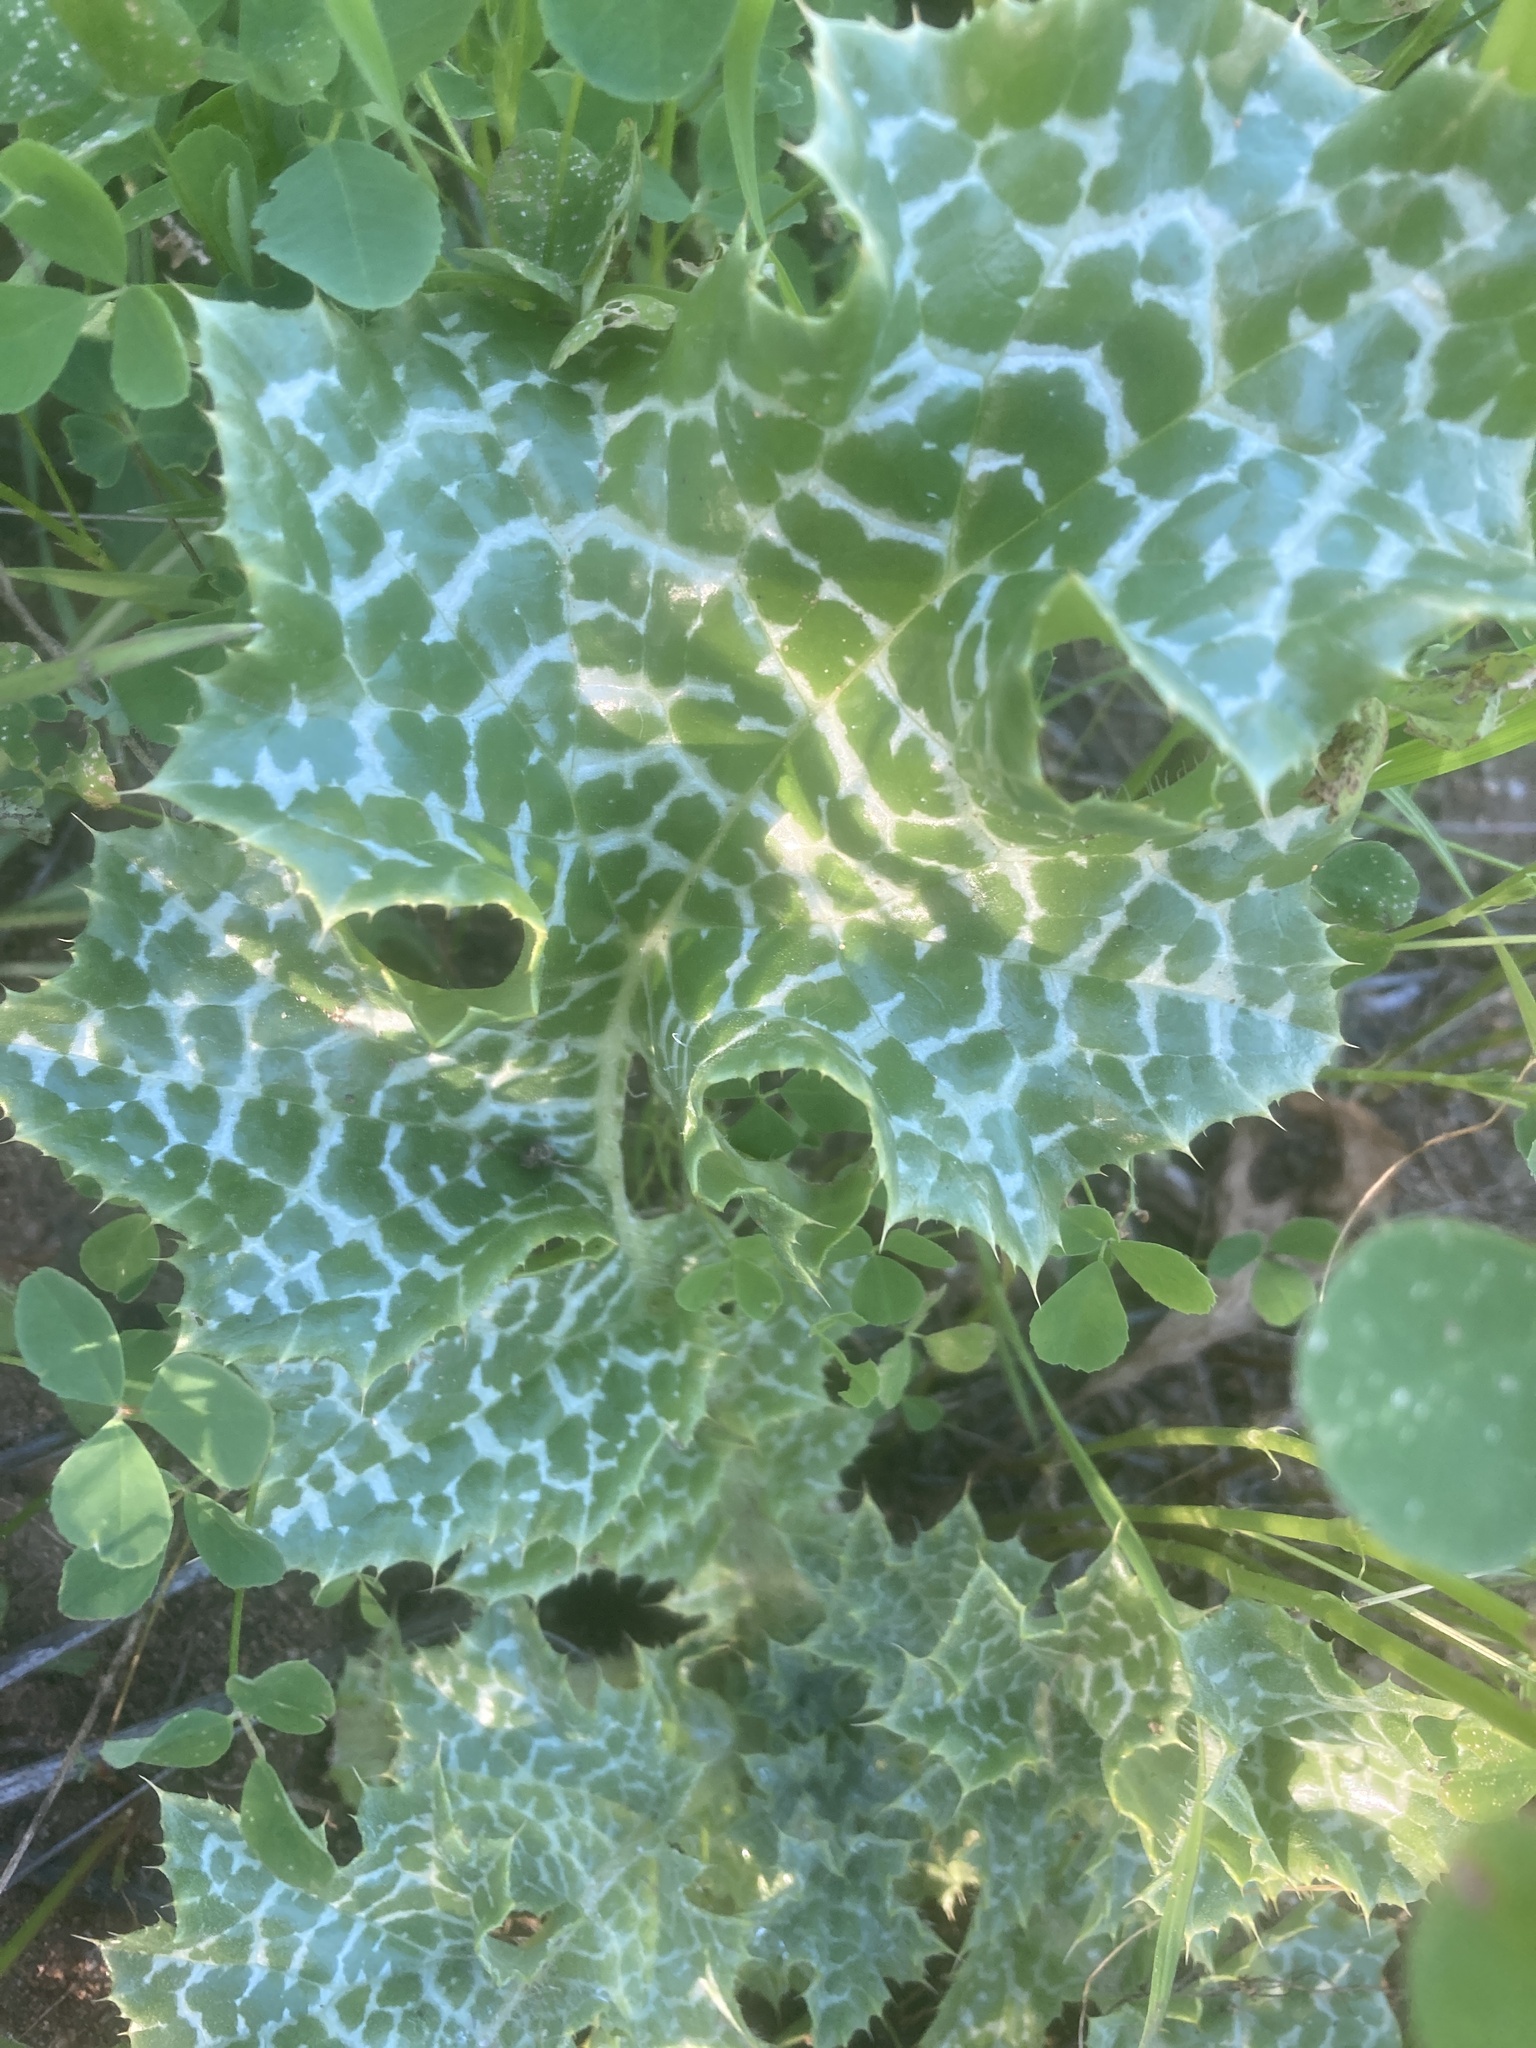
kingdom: Plantae
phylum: Tracheophyta
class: Magnoliopsida
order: Asterales
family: Asteraceae
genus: Silybum
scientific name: Silybum marianum
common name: Milk thistle
